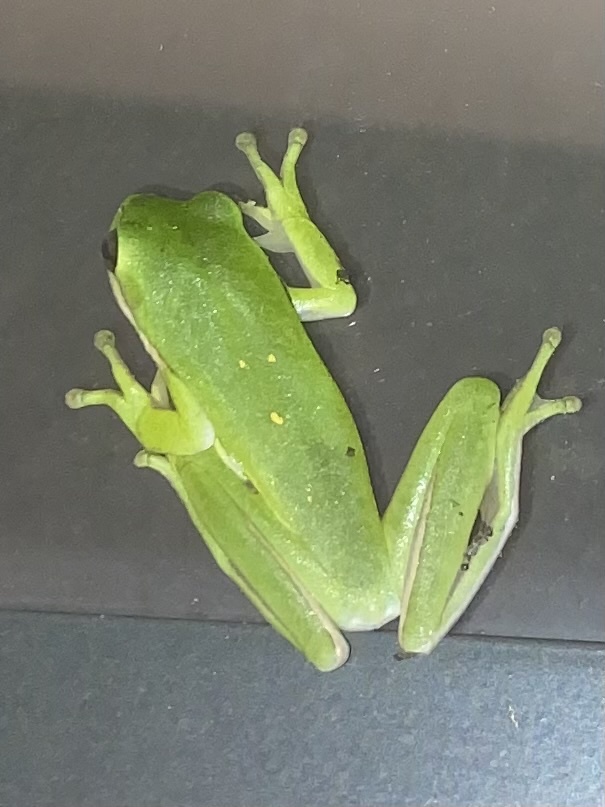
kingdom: Animalia
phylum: Chordata
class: Amphibia
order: Anura
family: Hylidae
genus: Dryophytes
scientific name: Dryophytes cinereus
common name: Green treefrog
